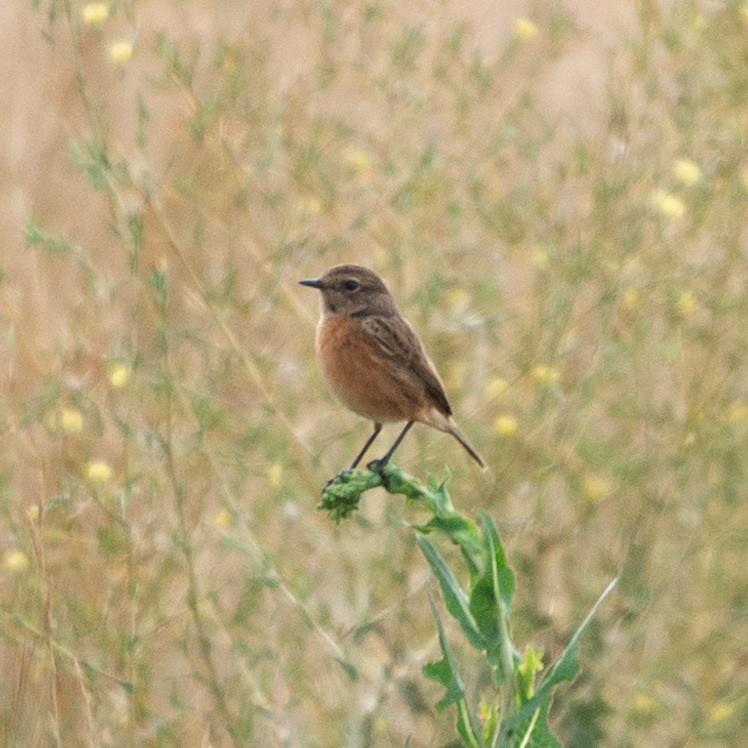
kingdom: Animalia
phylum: Chordata
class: Aves
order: Passeriformes
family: Muscicapidae
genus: Saxicola
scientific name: Saxicola rubicola
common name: European stonechat
